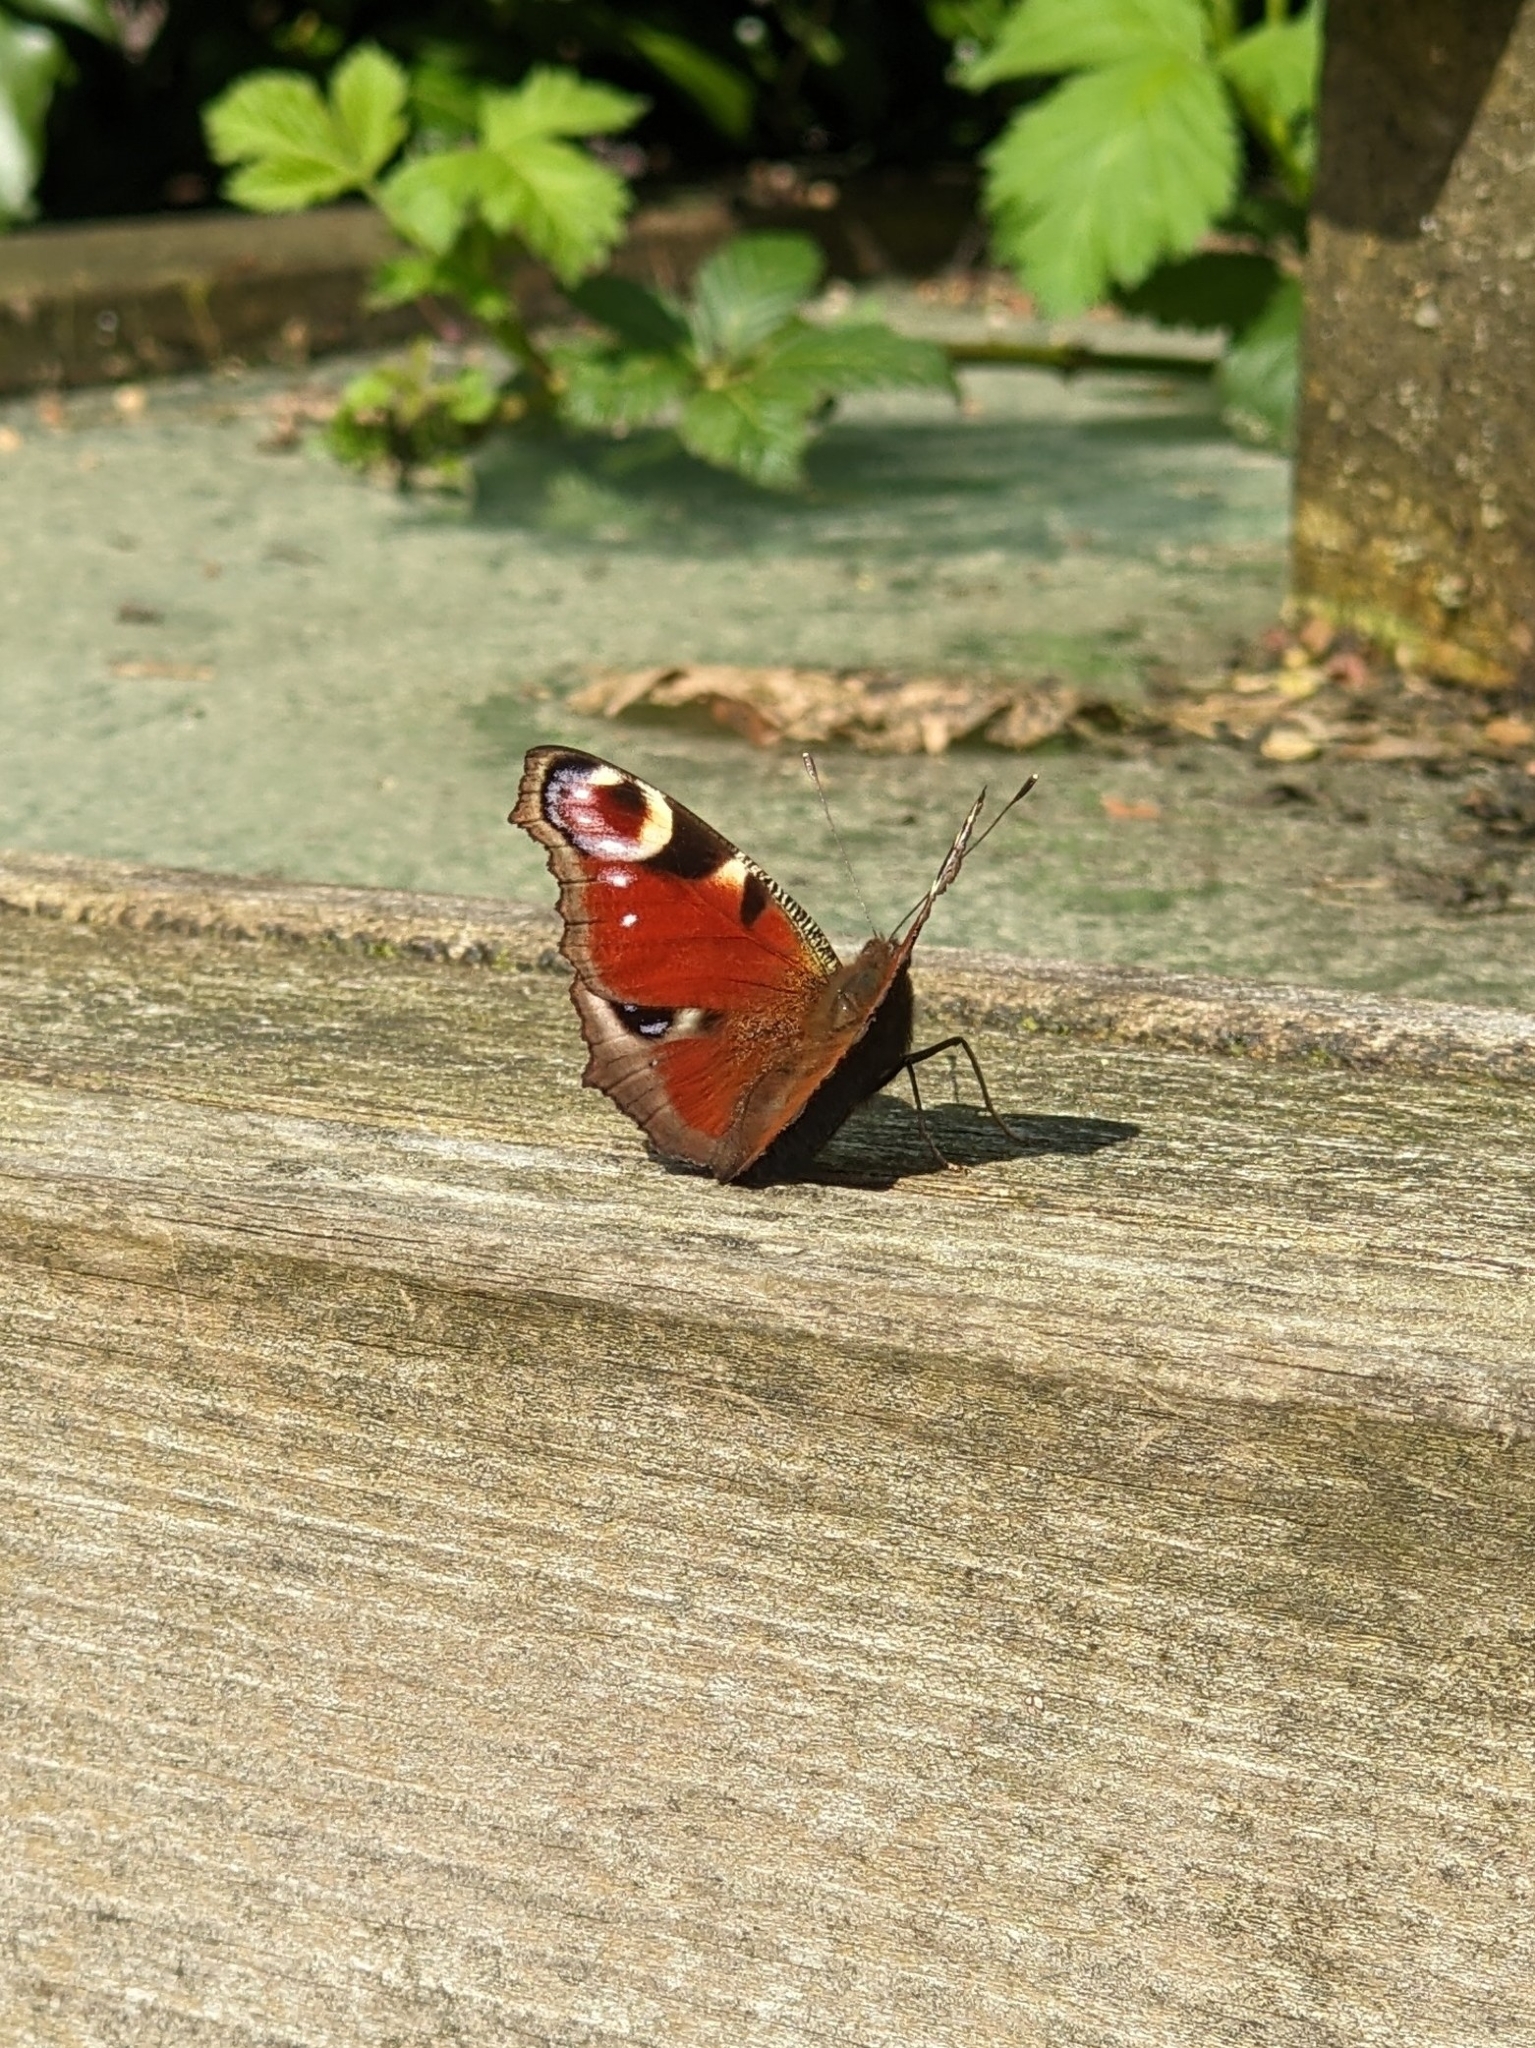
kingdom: Animalia
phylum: Arthropoda
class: Insecta
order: Lepidoptera
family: Nymphalidae
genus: Aglais
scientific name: Aglais io
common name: Peacock
